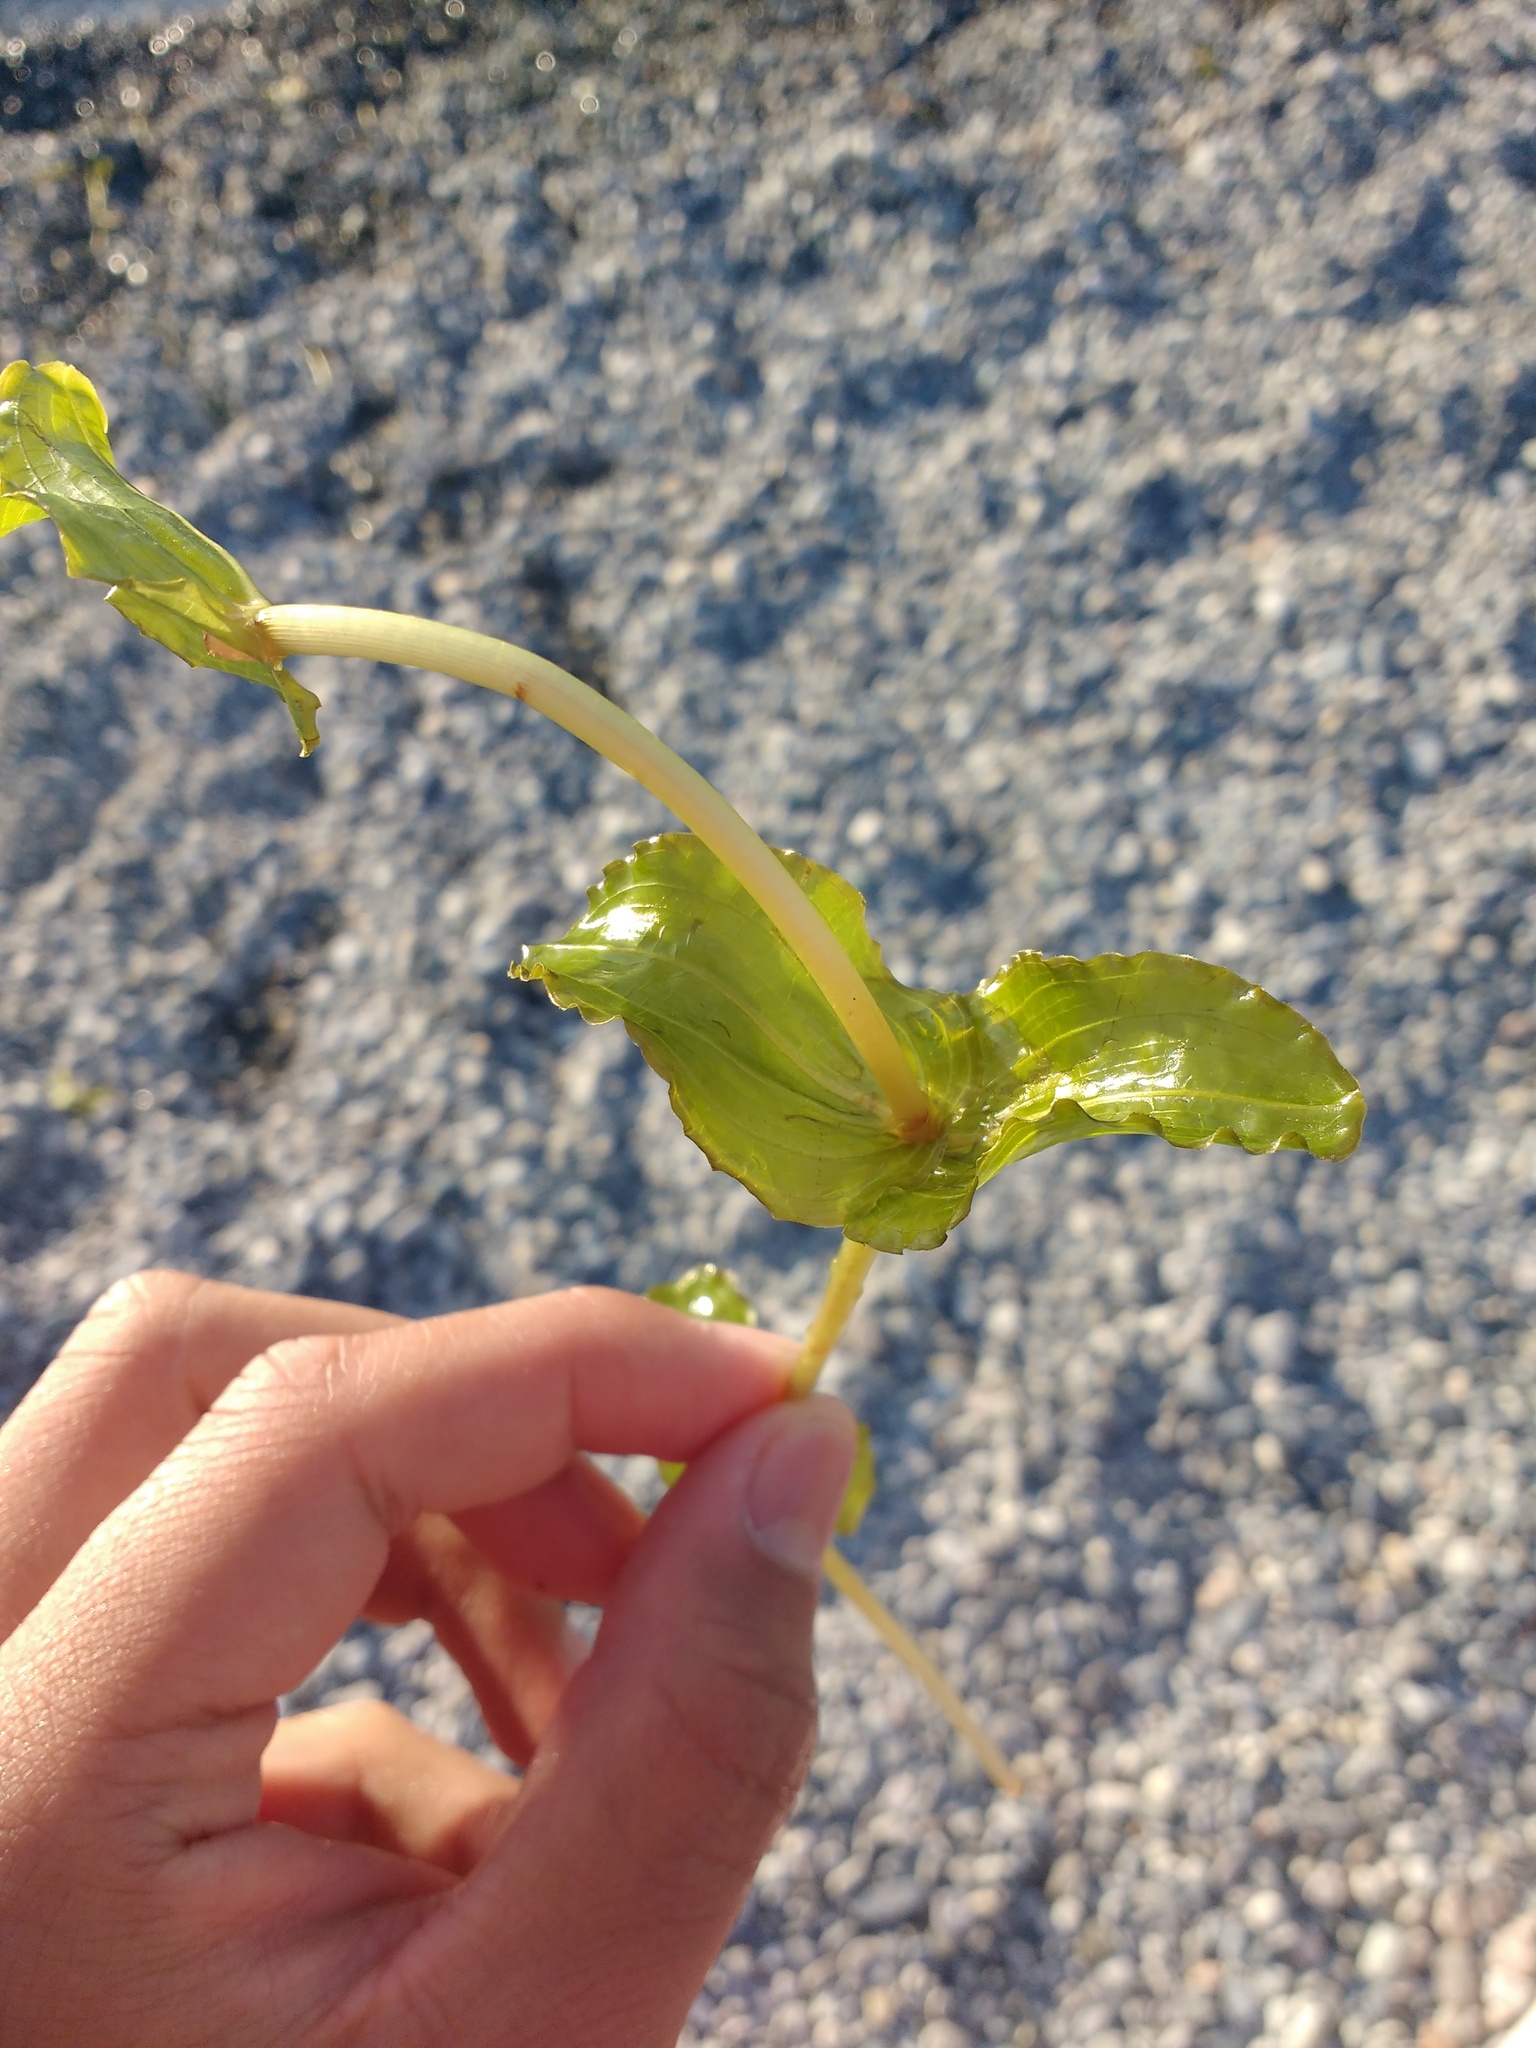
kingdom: Plantae
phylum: Tracheophyta
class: Liliopsida
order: Alismatales
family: Potamogetonaceae
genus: Potamogeton
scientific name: Potamogeton perfoliatus
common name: Perfoliate pondweed
